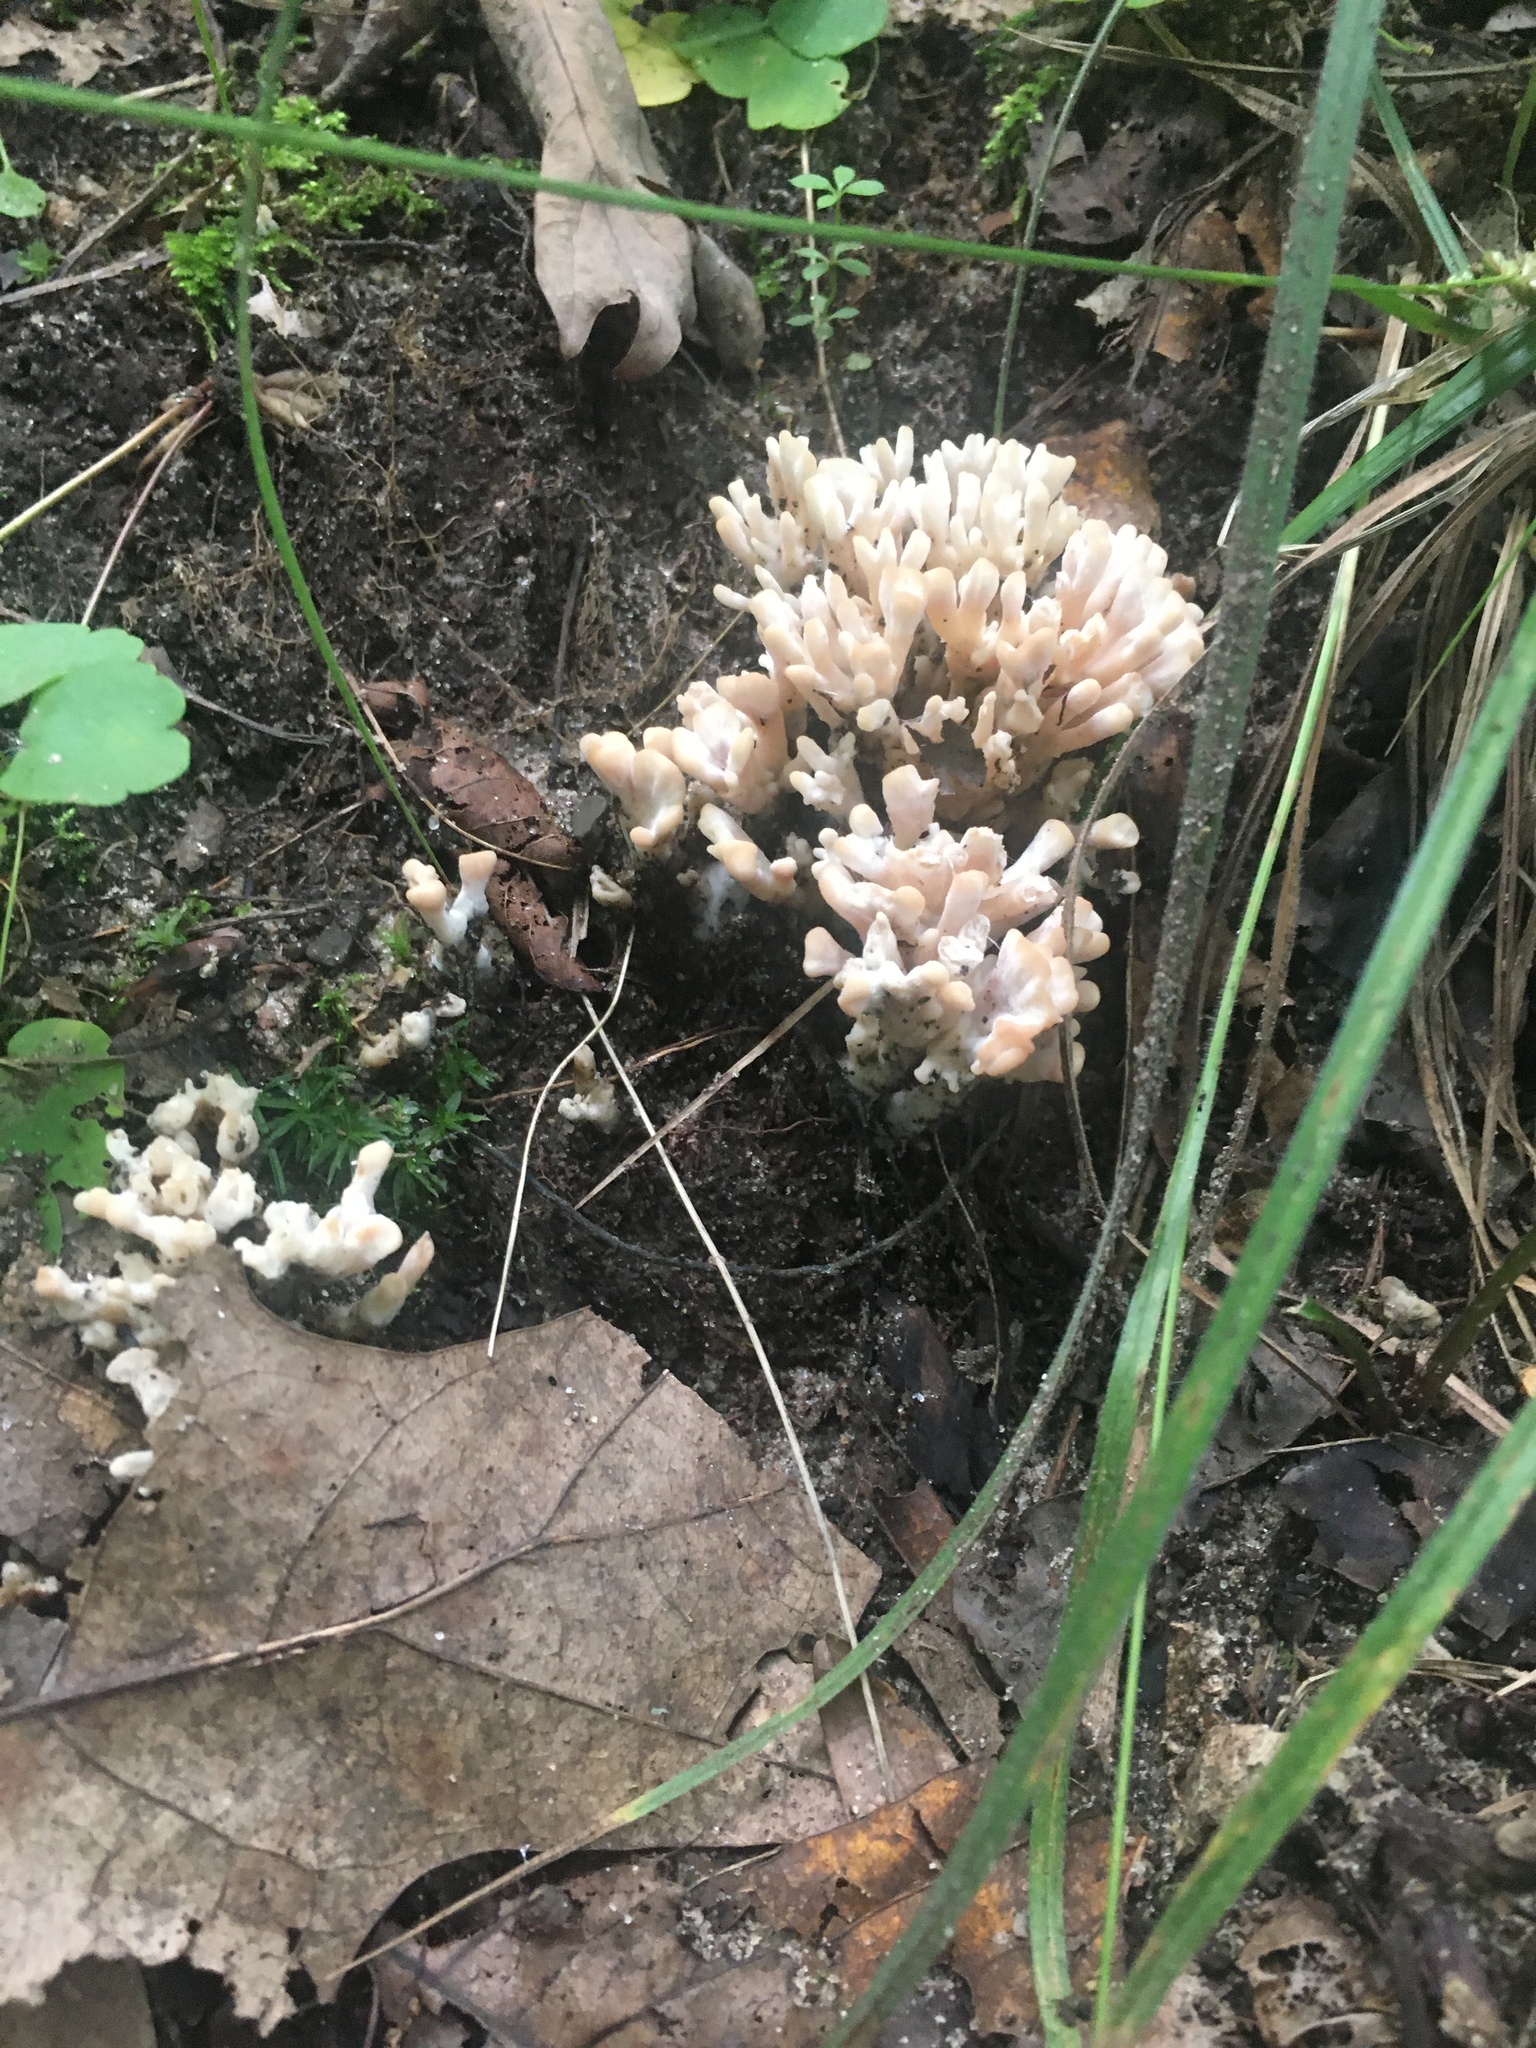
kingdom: Fungi
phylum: Basidiomycota
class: Agaricomycetes
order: Sebacinales
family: Sebacinaceae
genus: Sebacina
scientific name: Sebacina schweinitzii
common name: Jellied false coral fungus
